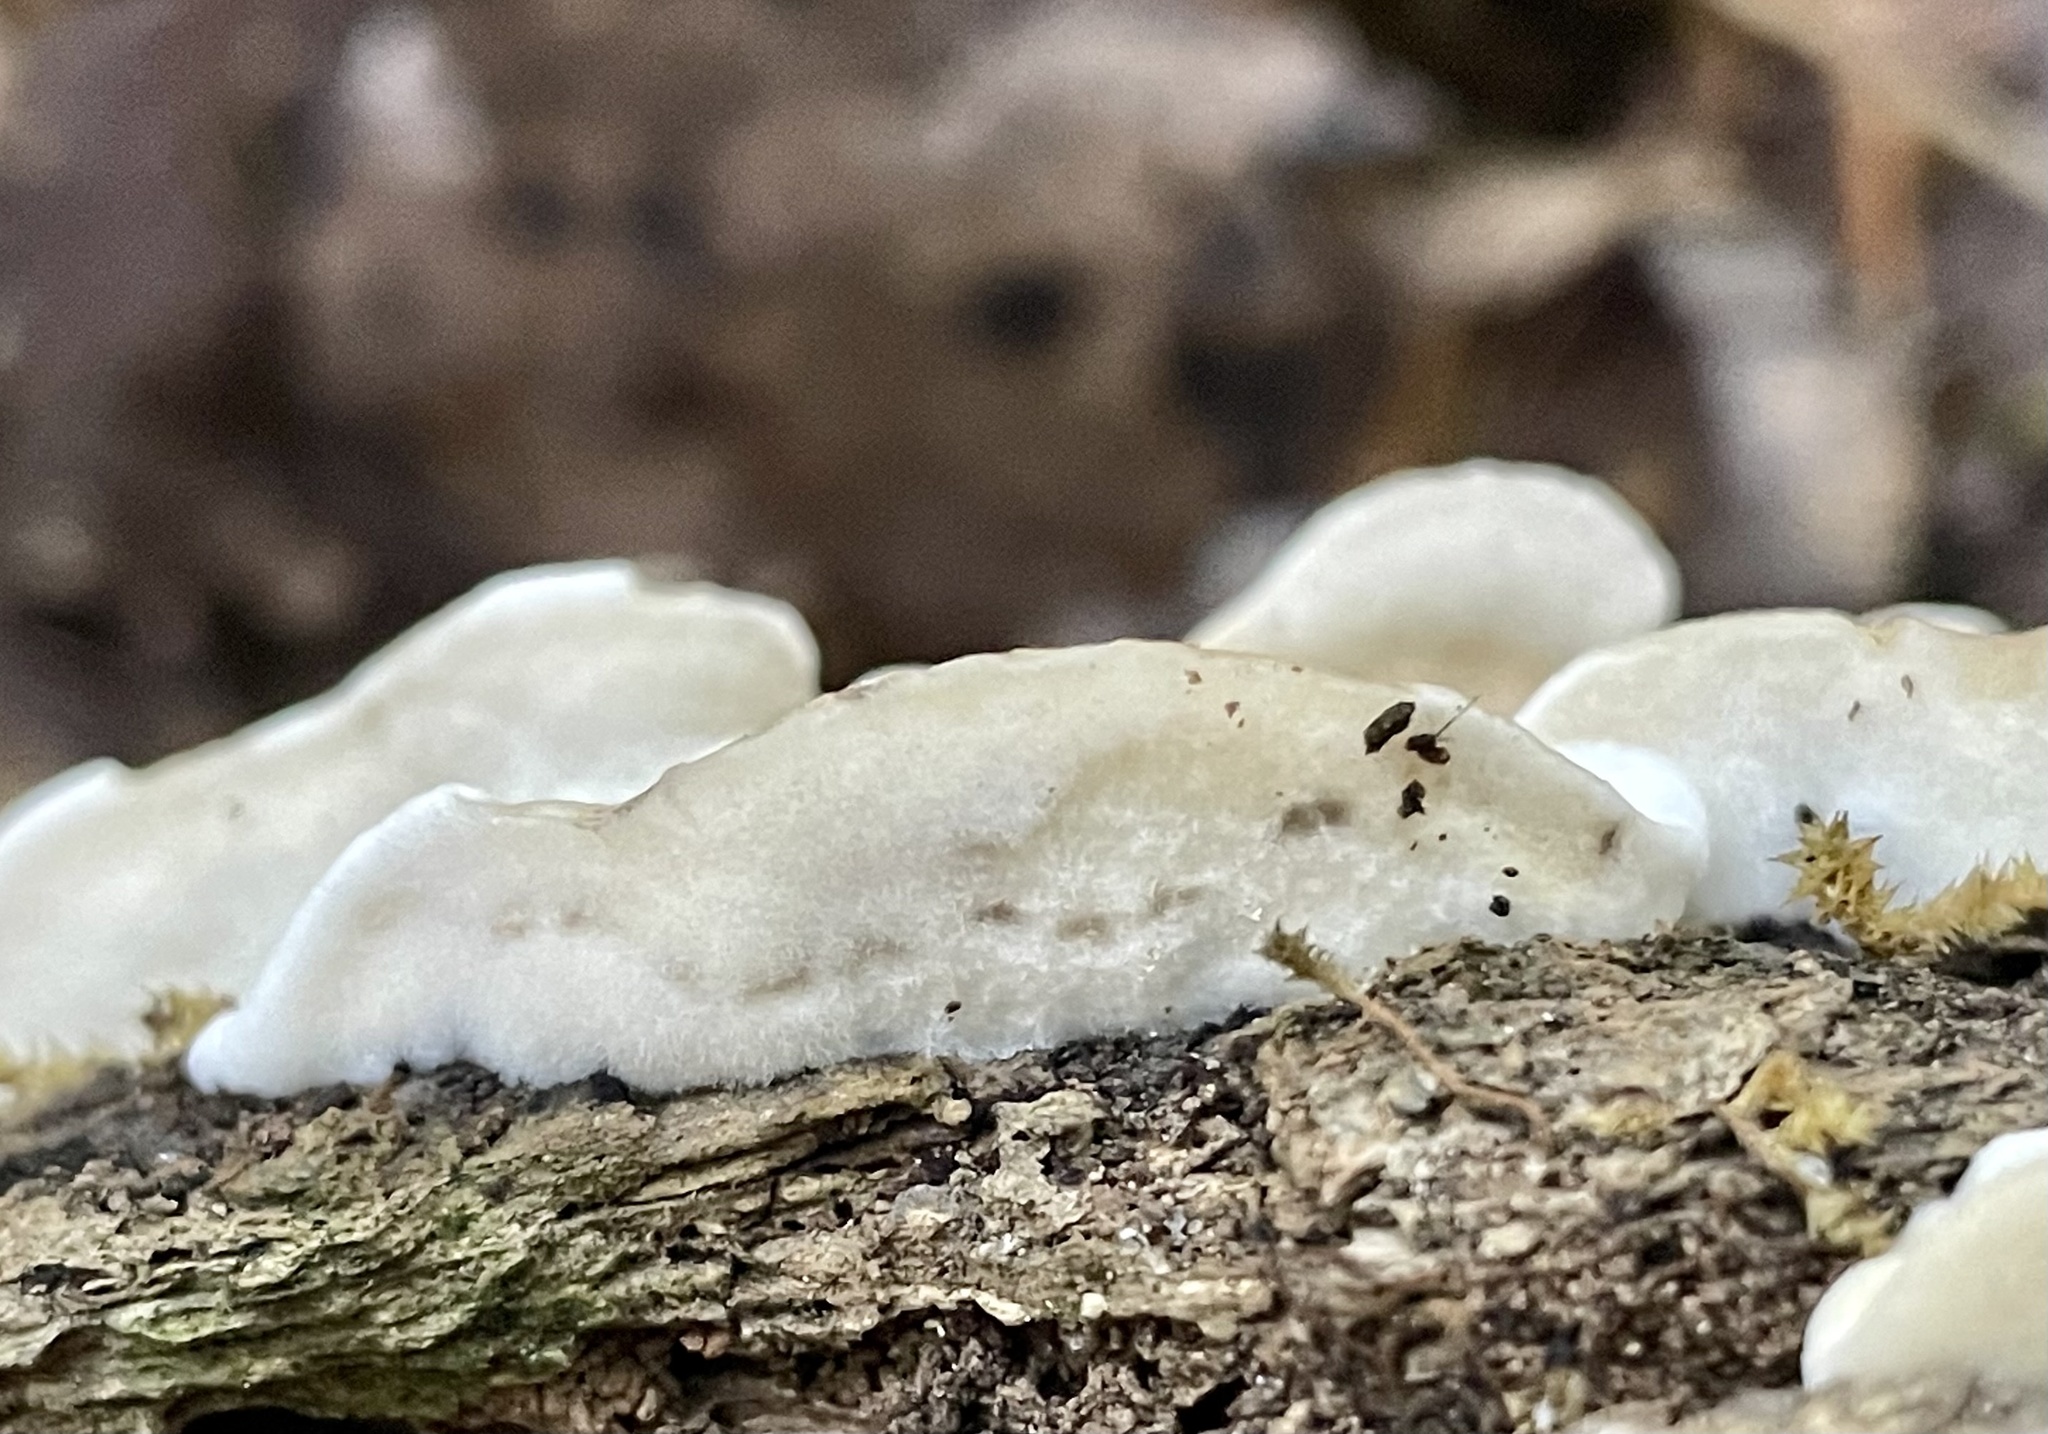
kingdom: Fungi
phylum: Basidiomycota
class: Agaricomycetes
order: Polyporales
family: Phanerochaetaceae
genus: Bjerkandera
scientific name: Bjerkandera adusta
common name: Smoky bracket
